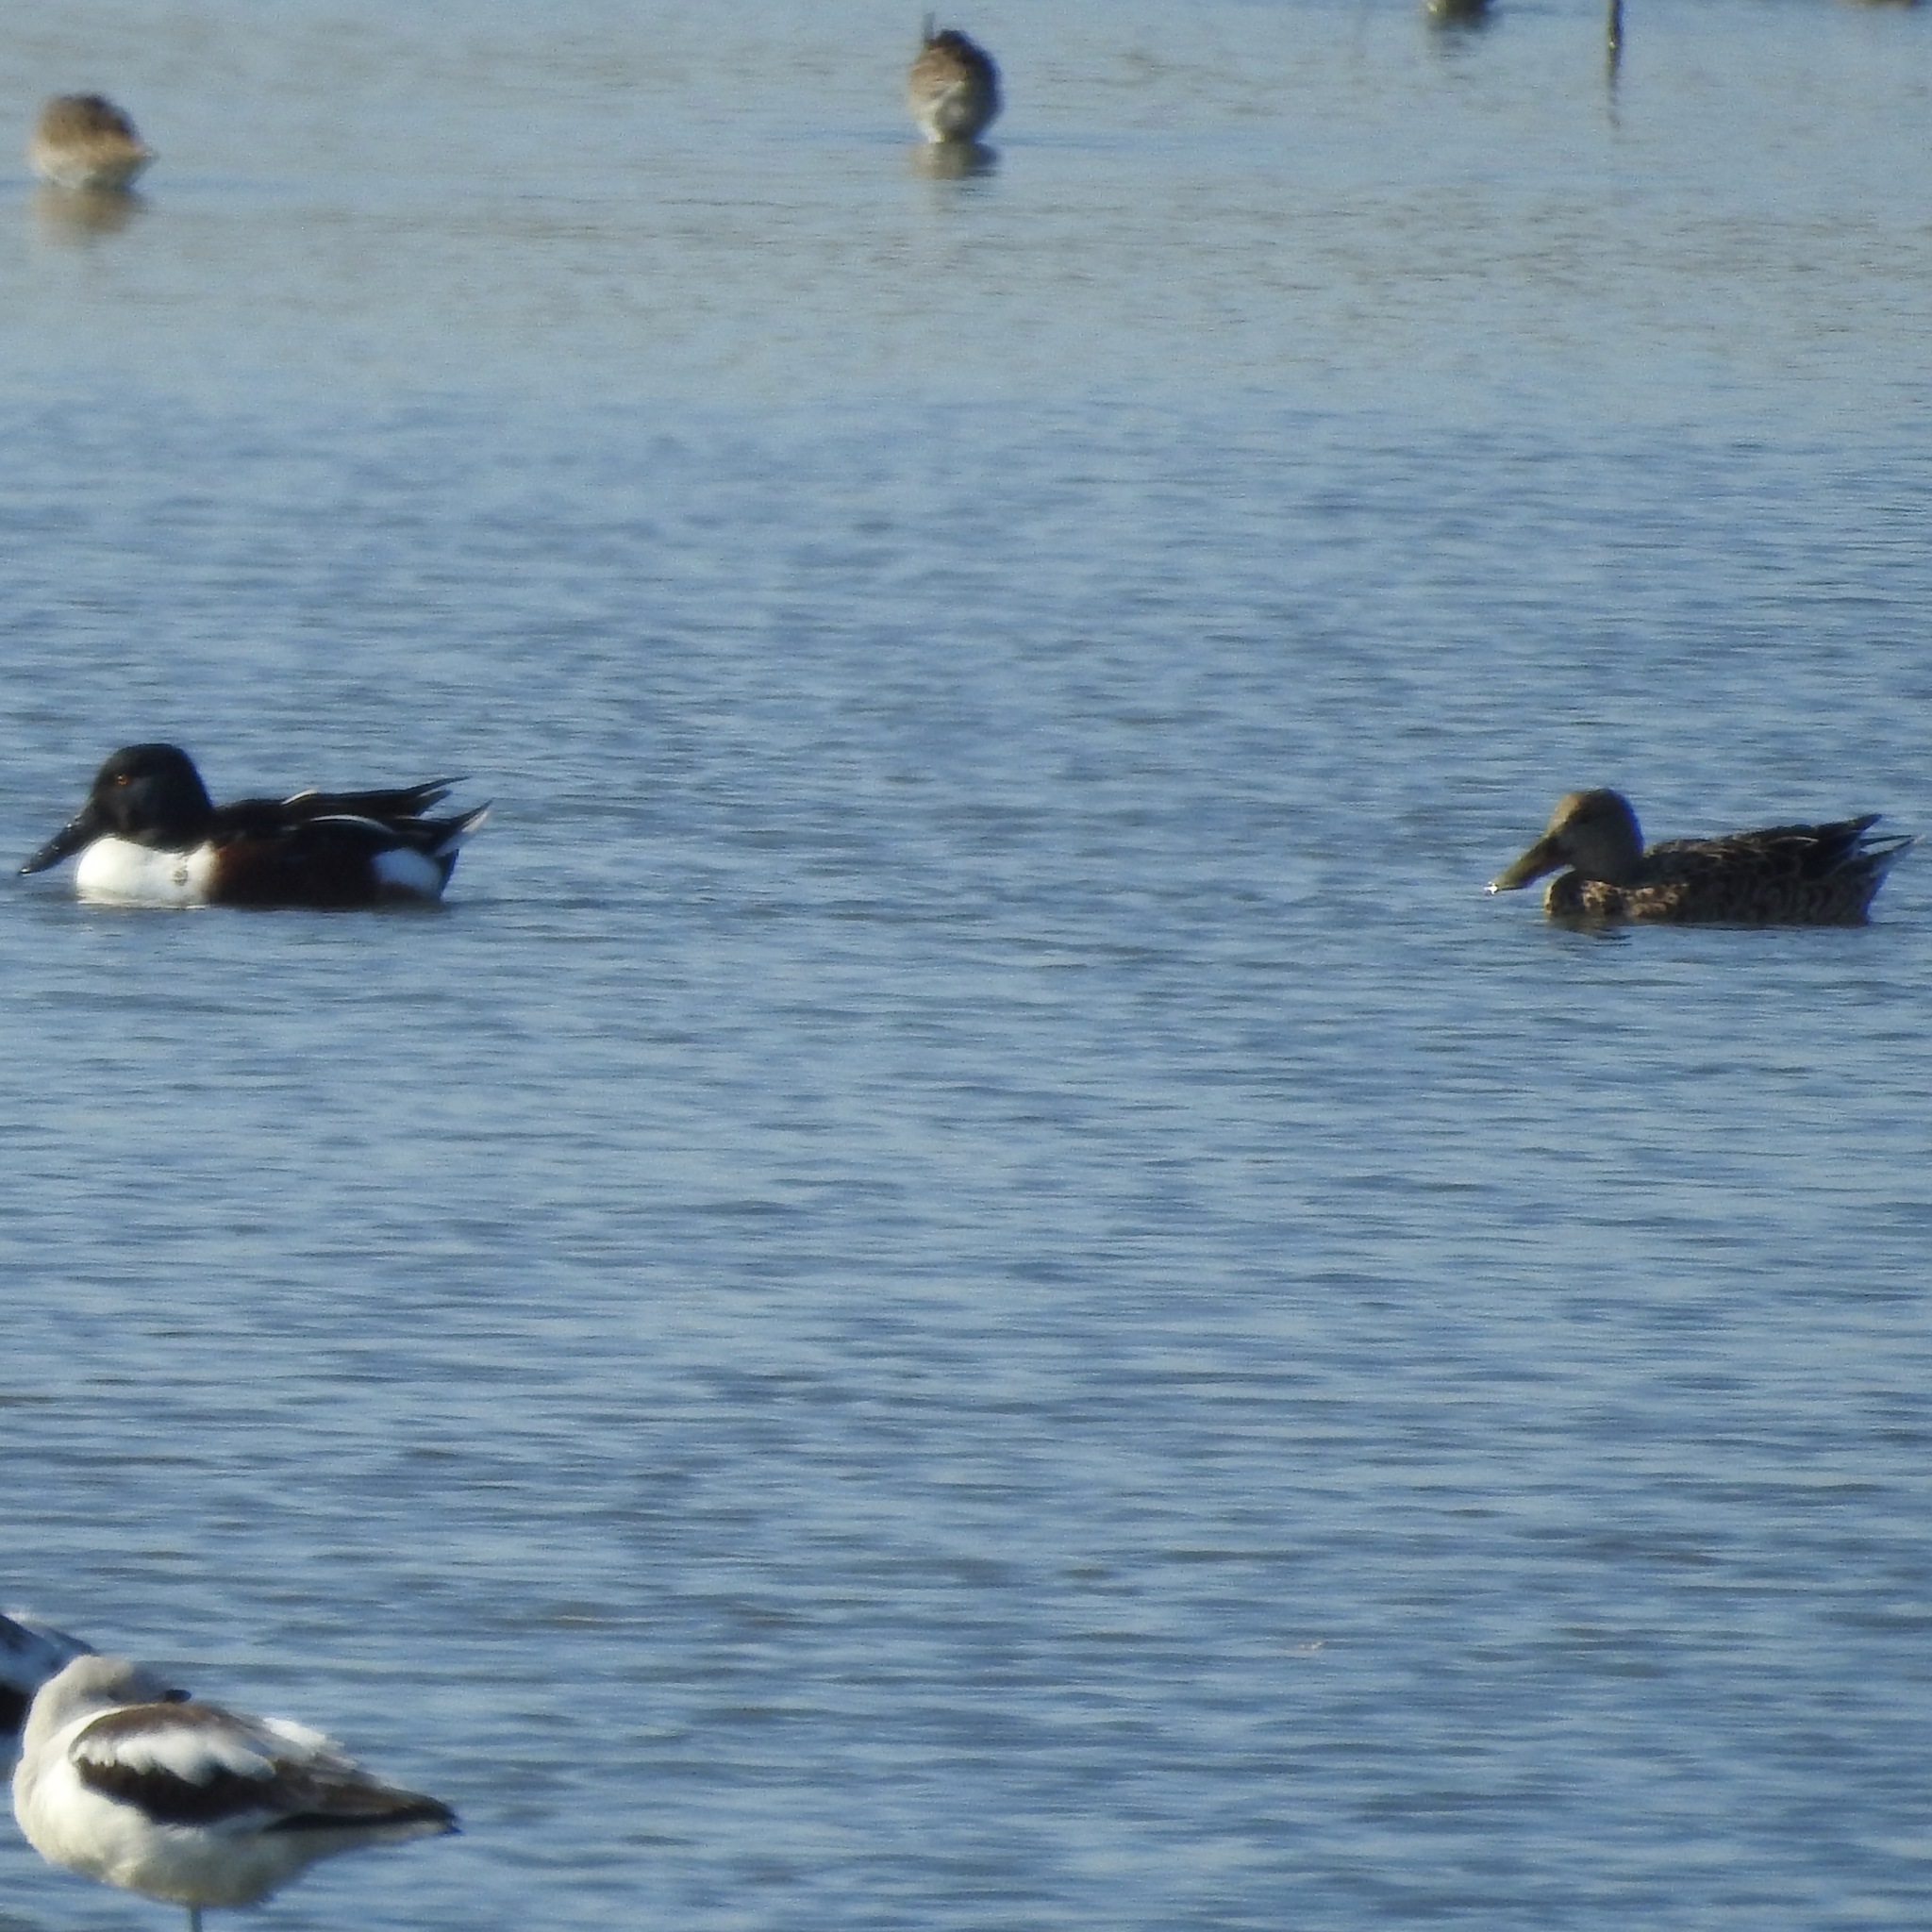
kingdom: Animalia
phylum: Chordata
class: Aves
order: Anseriformes
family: Anatidae
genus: Spatula
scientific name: Spatula clypeata
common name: Northern shoveler
